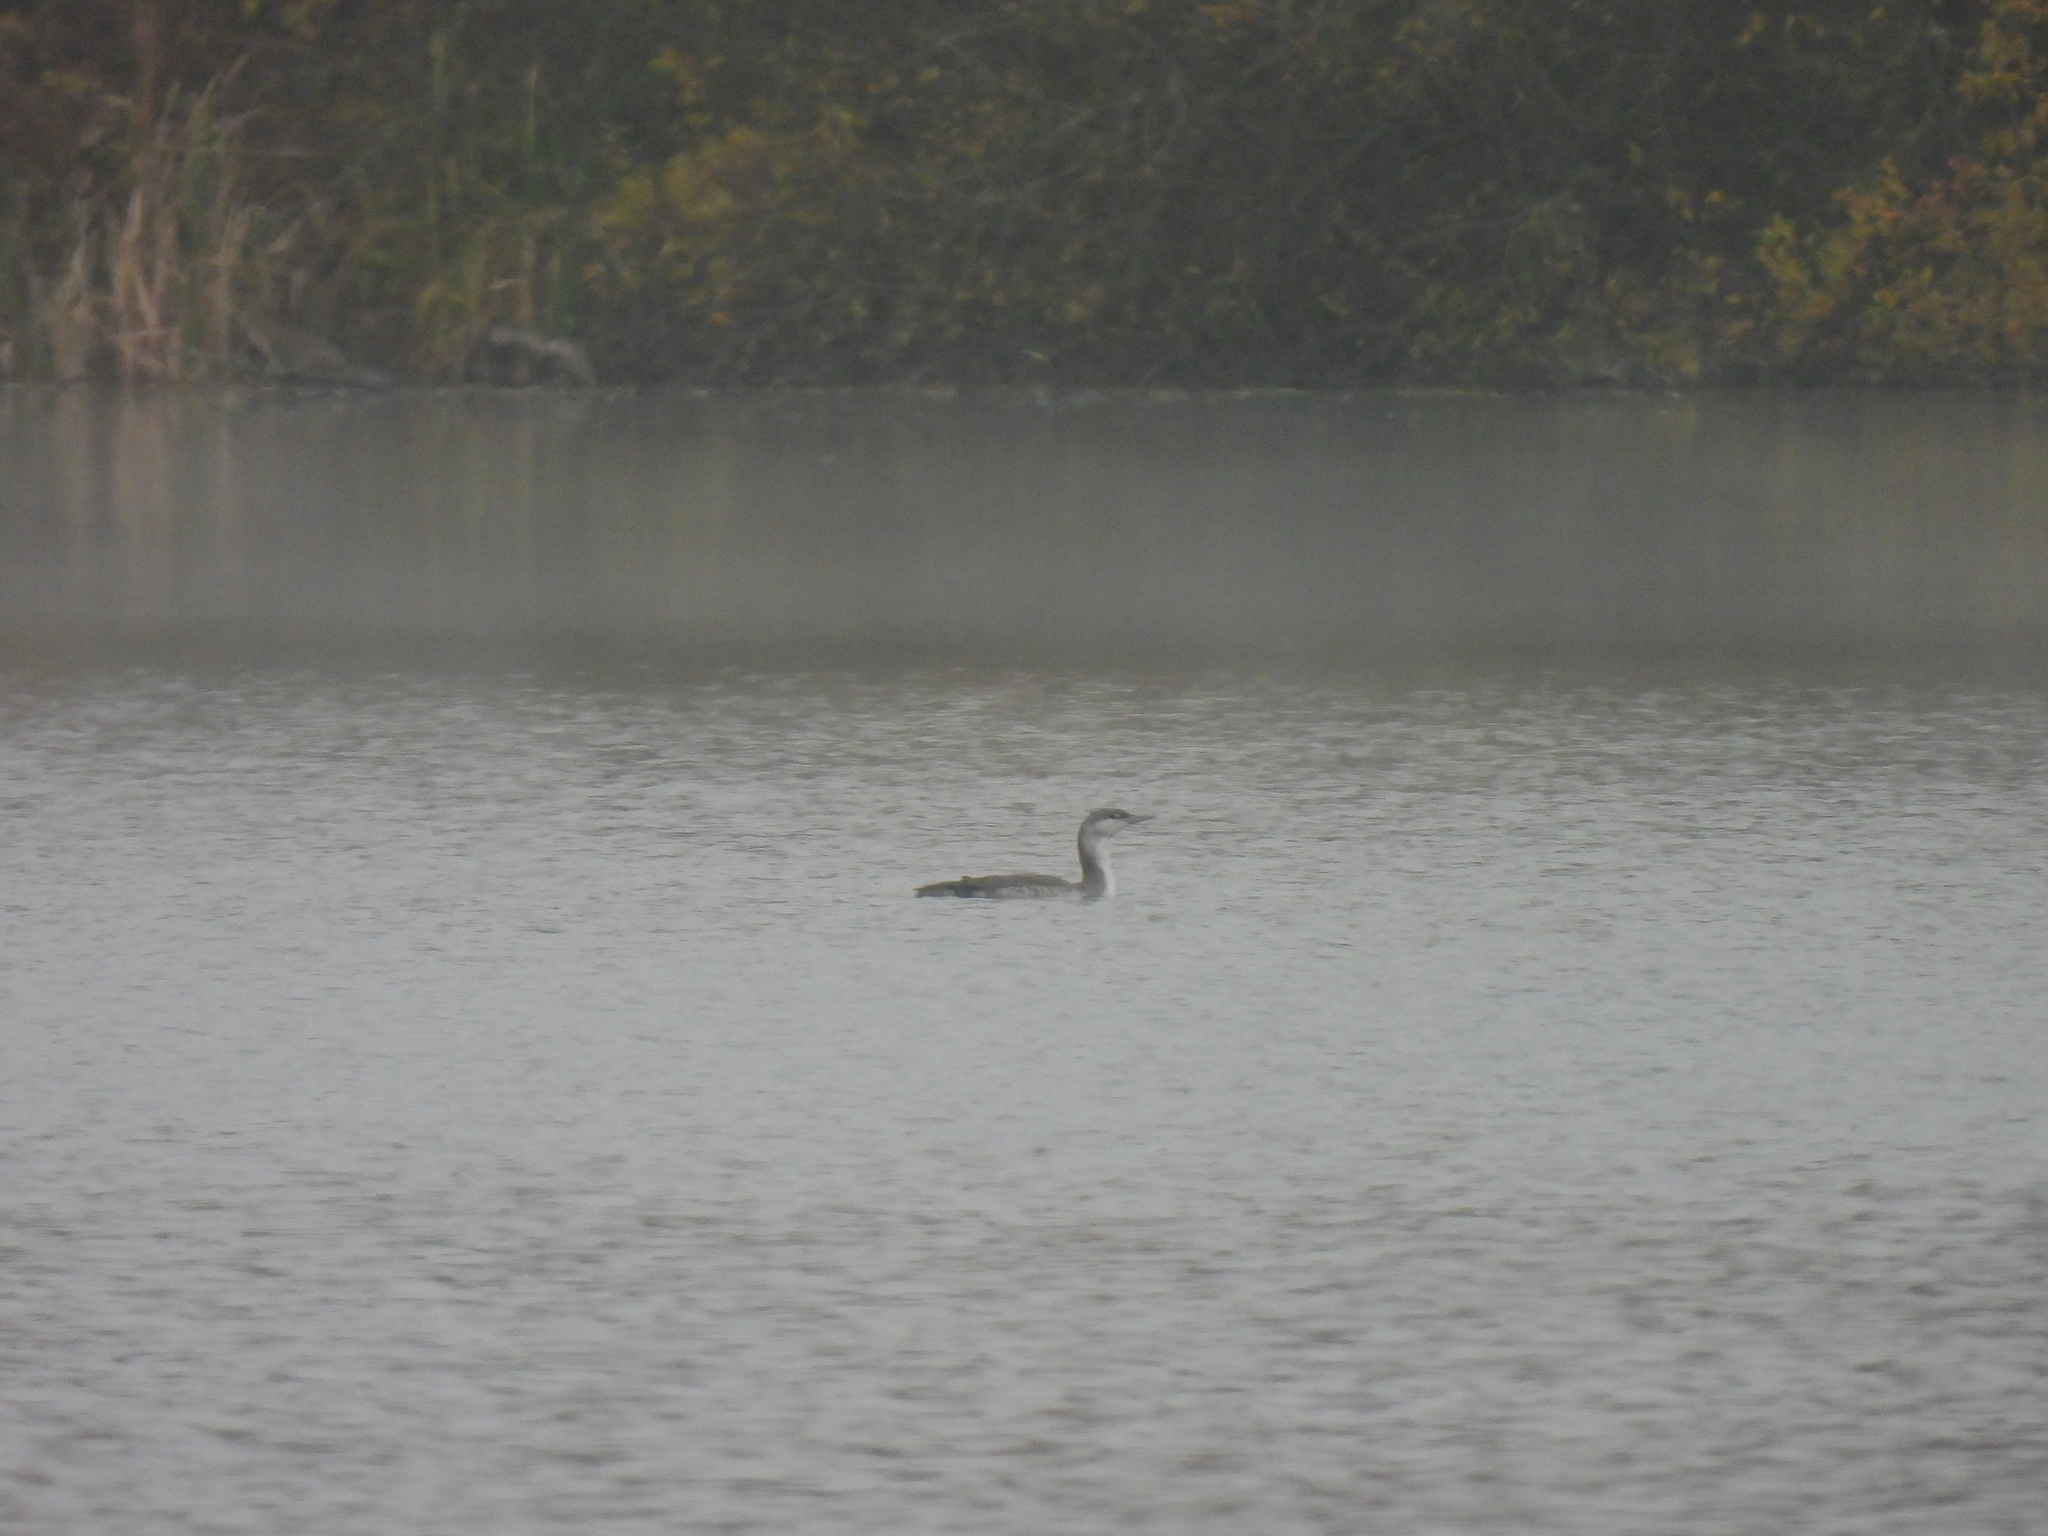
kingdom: Animalia
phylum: Chordata
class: Aves
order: Gaviiformes
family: Gaviidae
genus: Gavia
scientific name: Gavia stellata
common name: Red-throated loon
